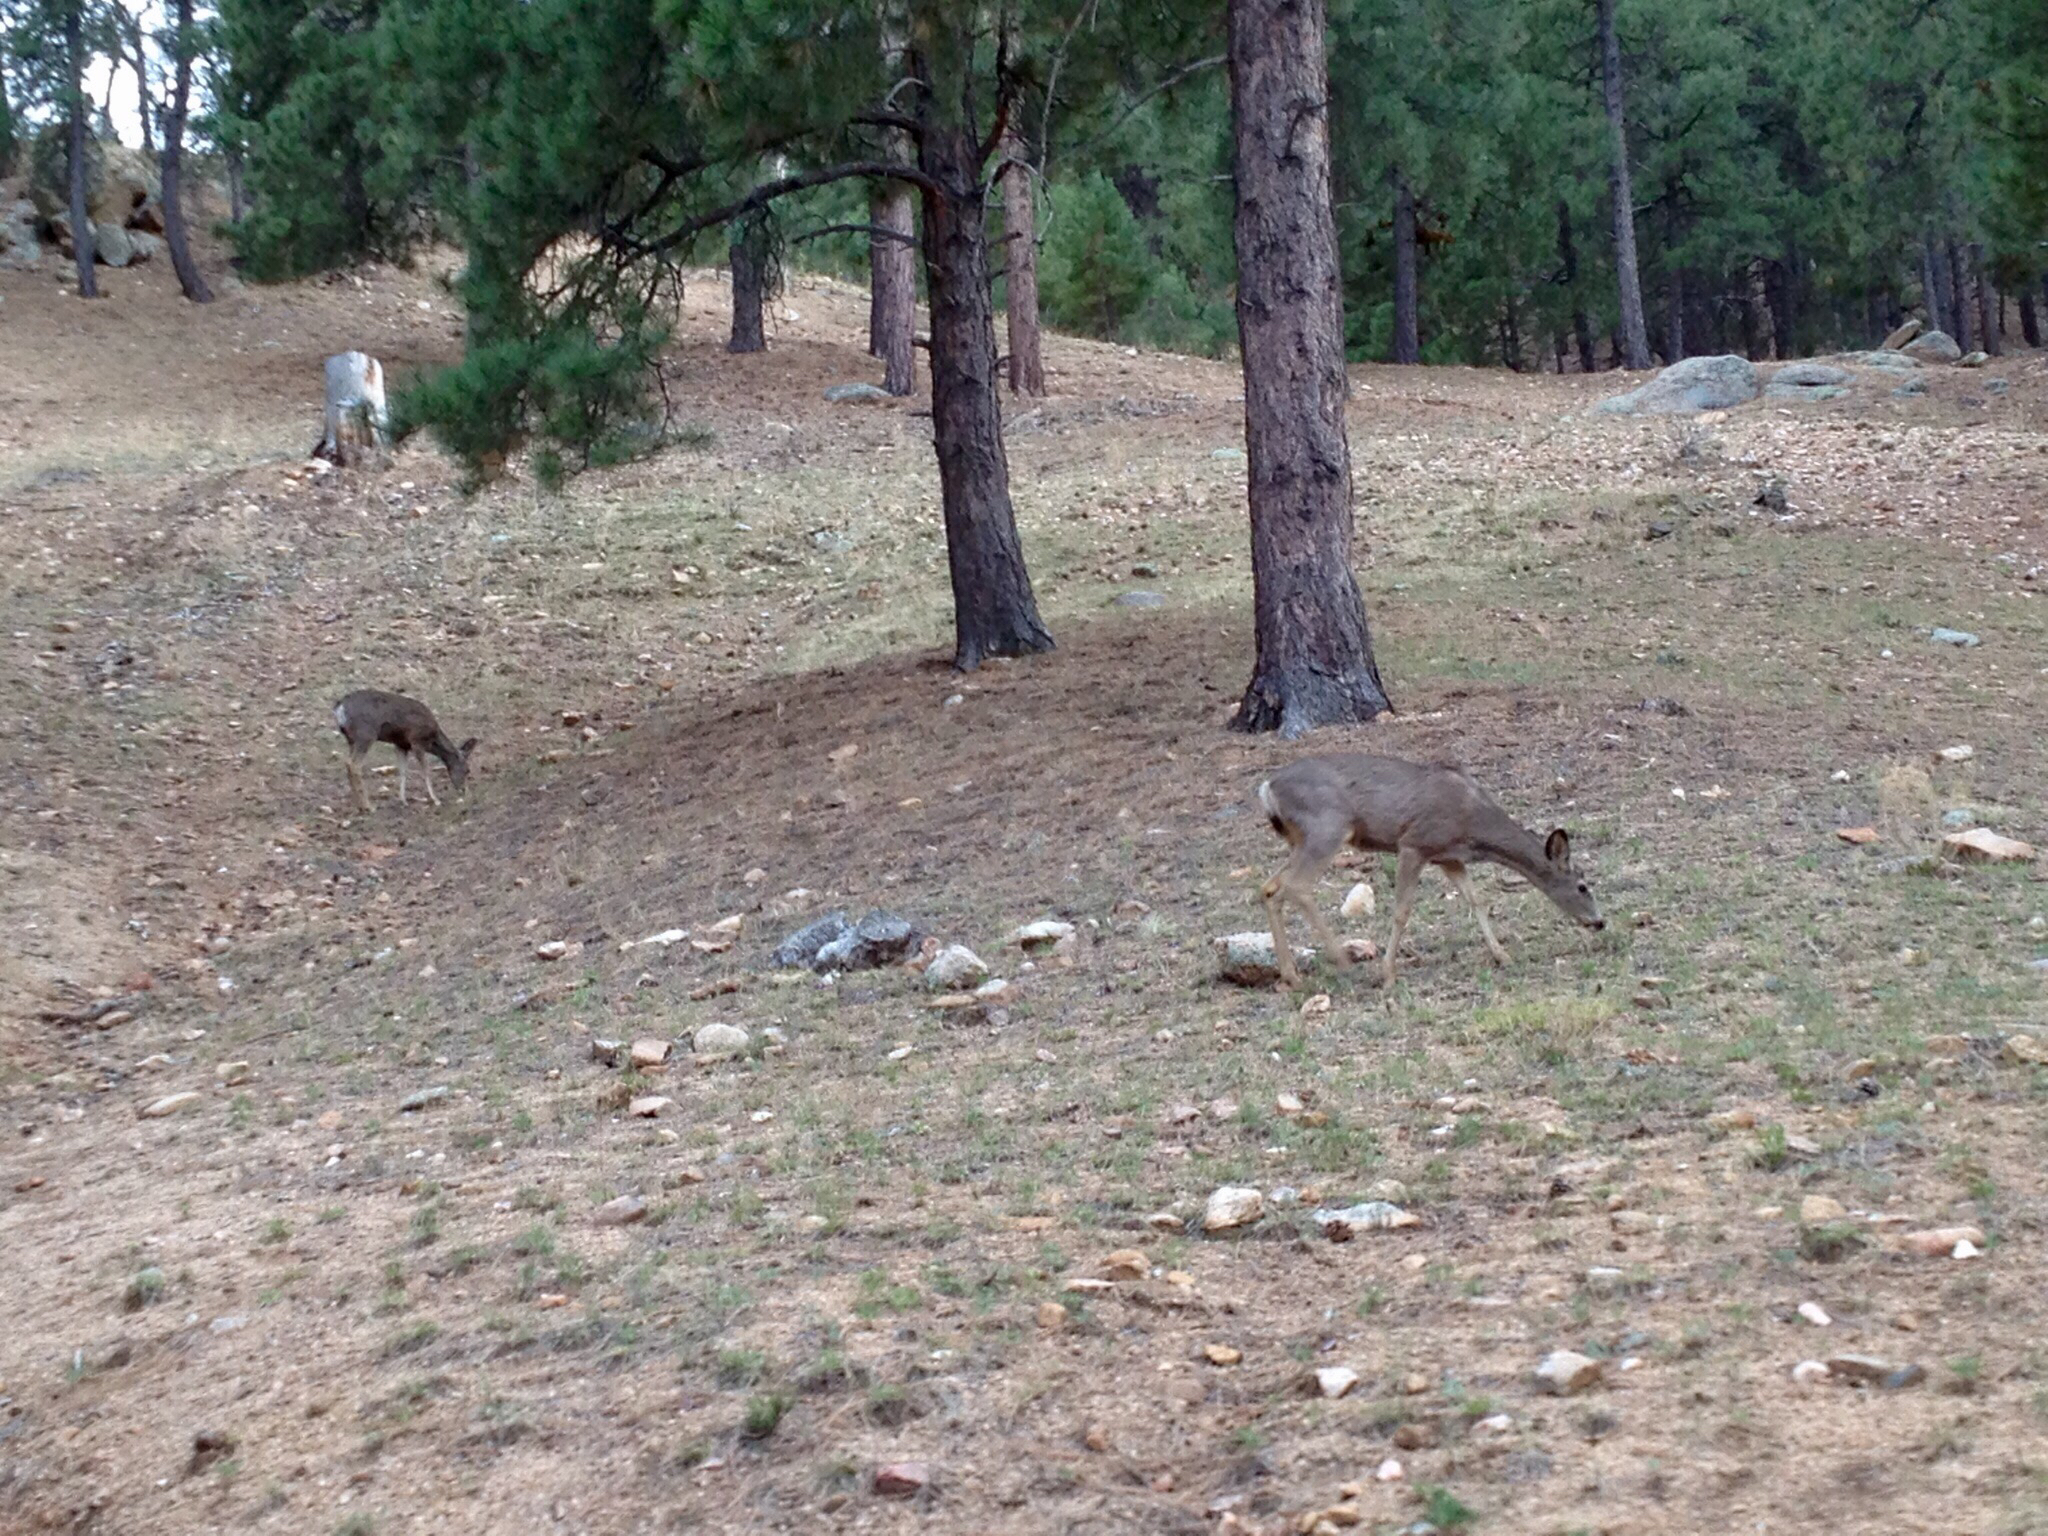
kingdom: Animalia
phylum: Chordata
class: Mammalia
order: Artiodactyla
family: Cervidae
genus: Odocoileus
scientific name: Odocoileus hemionus
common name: Mule deer
